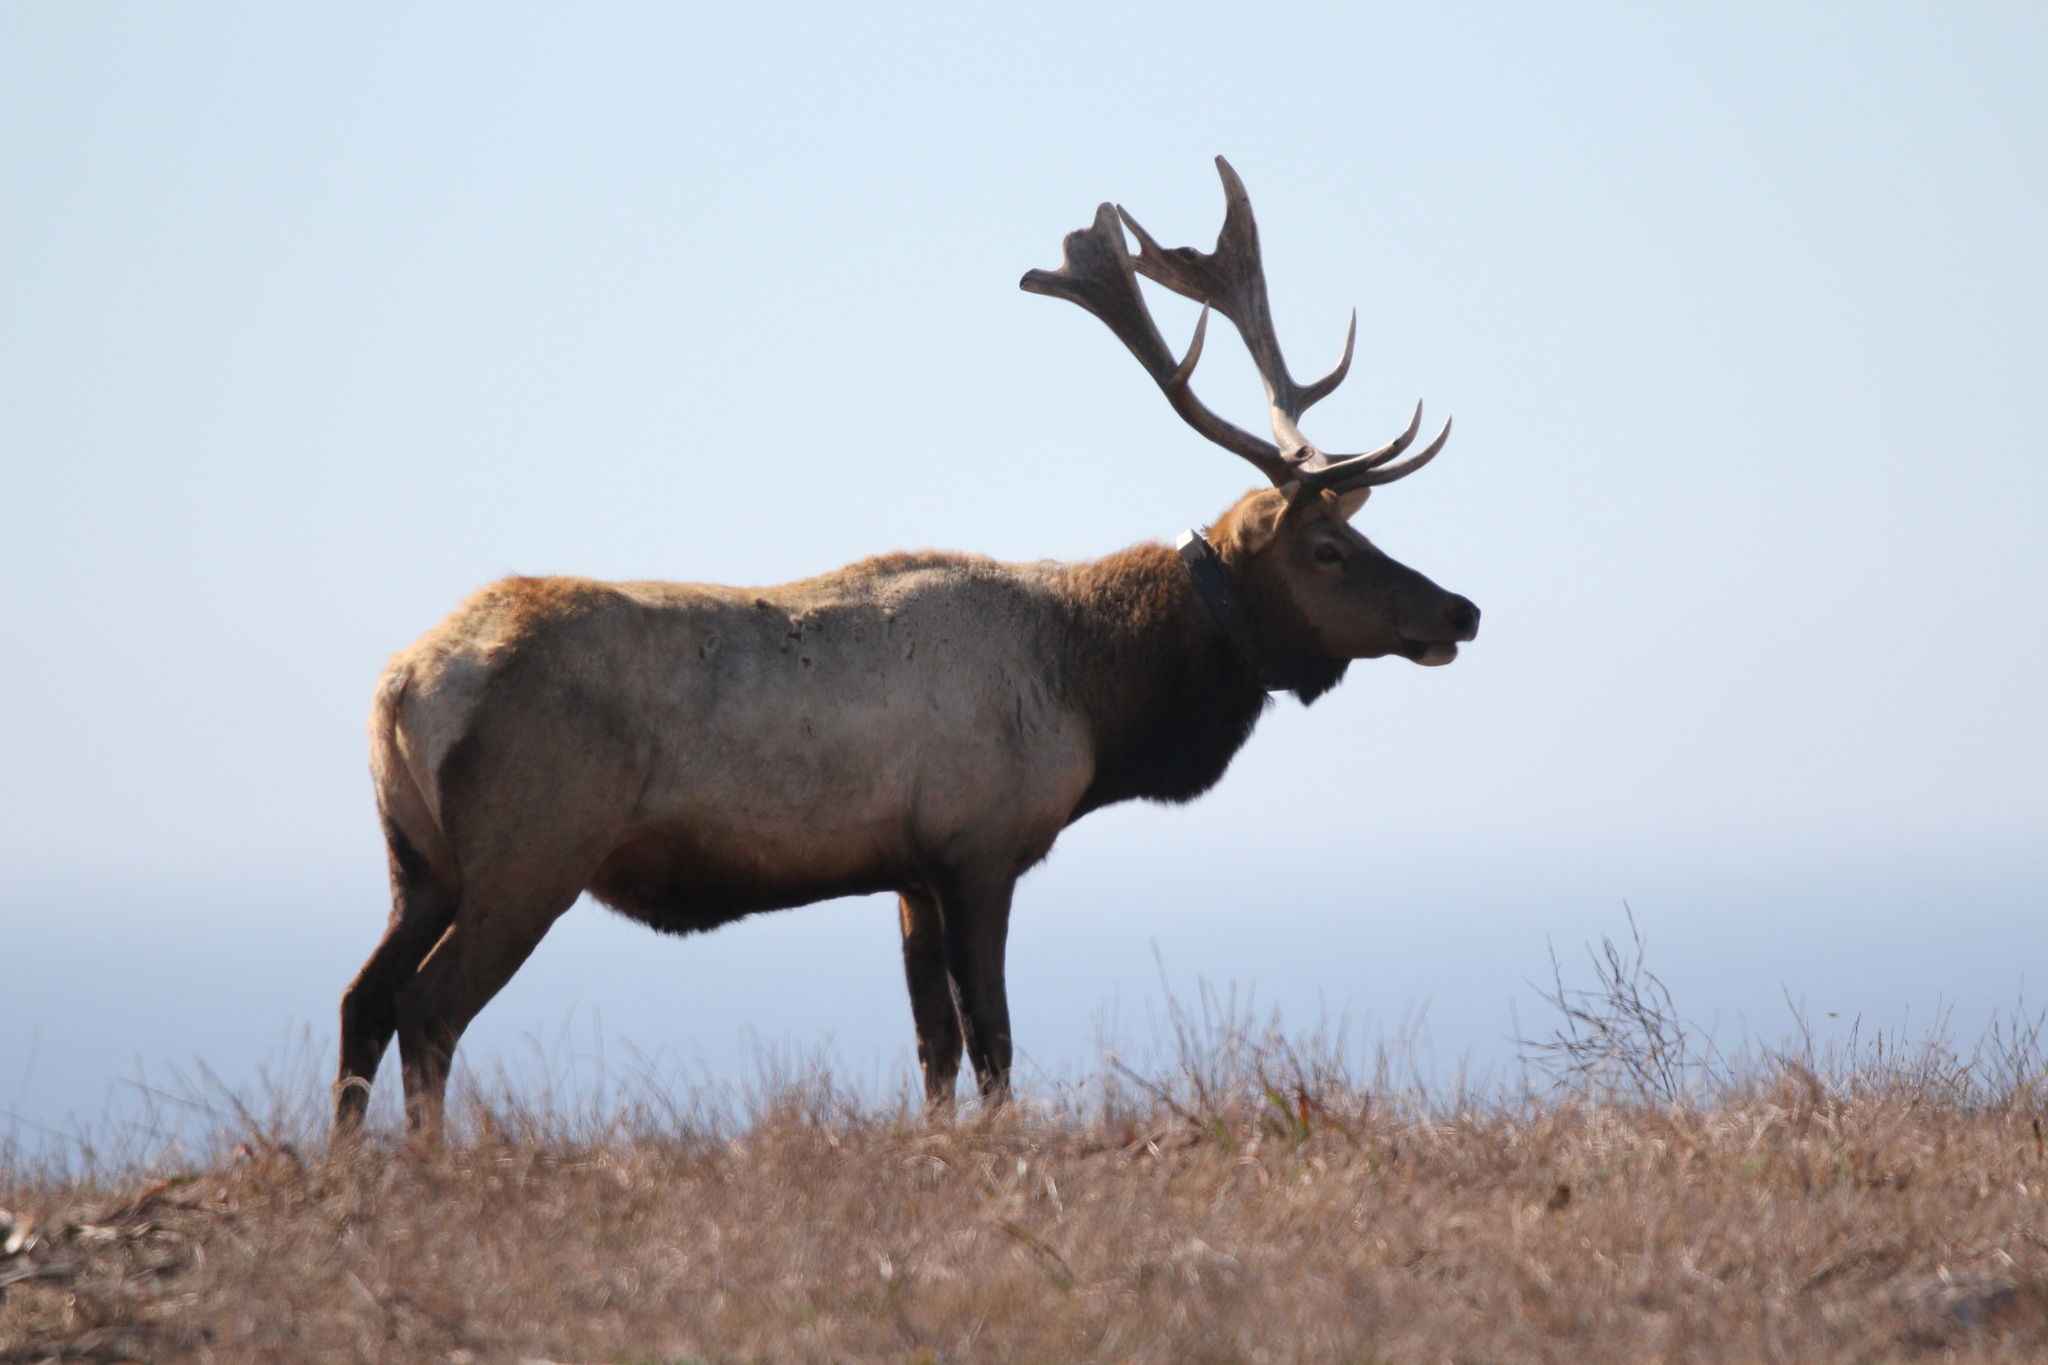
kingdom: Animalia
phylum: Chordata
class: Mammalia
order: Artiodactyla
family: Cervidae
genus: Cervus
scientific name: Cervus elaphus
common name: Red deer
